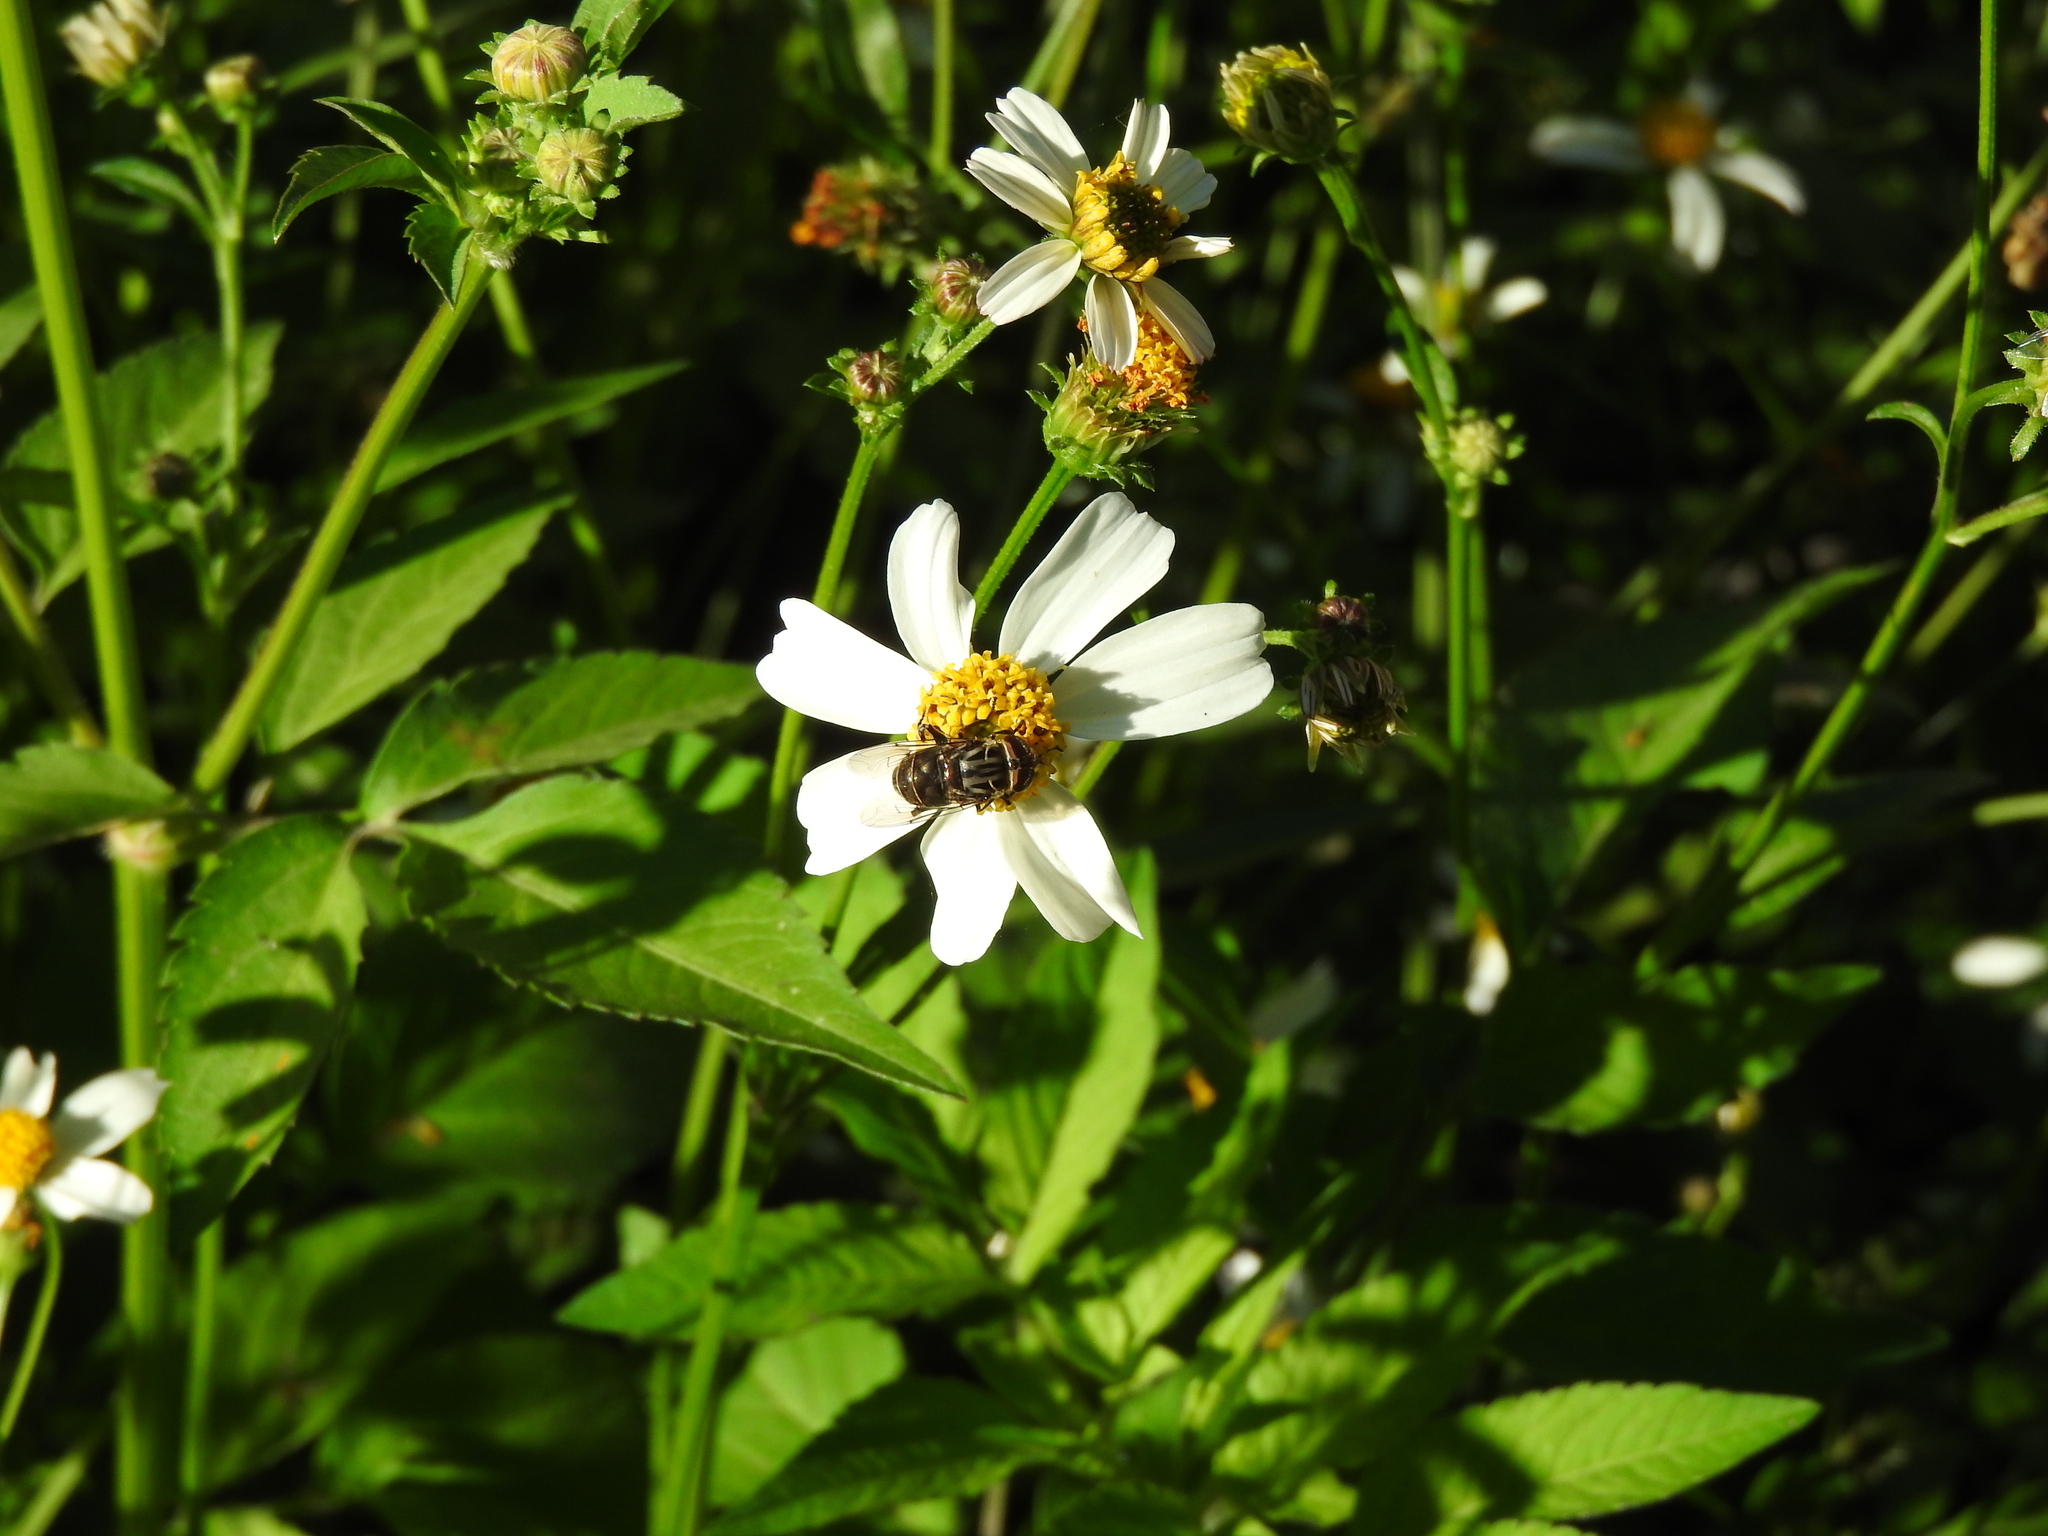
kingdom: Animalia
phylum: Arthropoda
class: Insecta
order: Diptera
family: Syrphidae
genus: Palpada
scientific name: Palpada furcata
